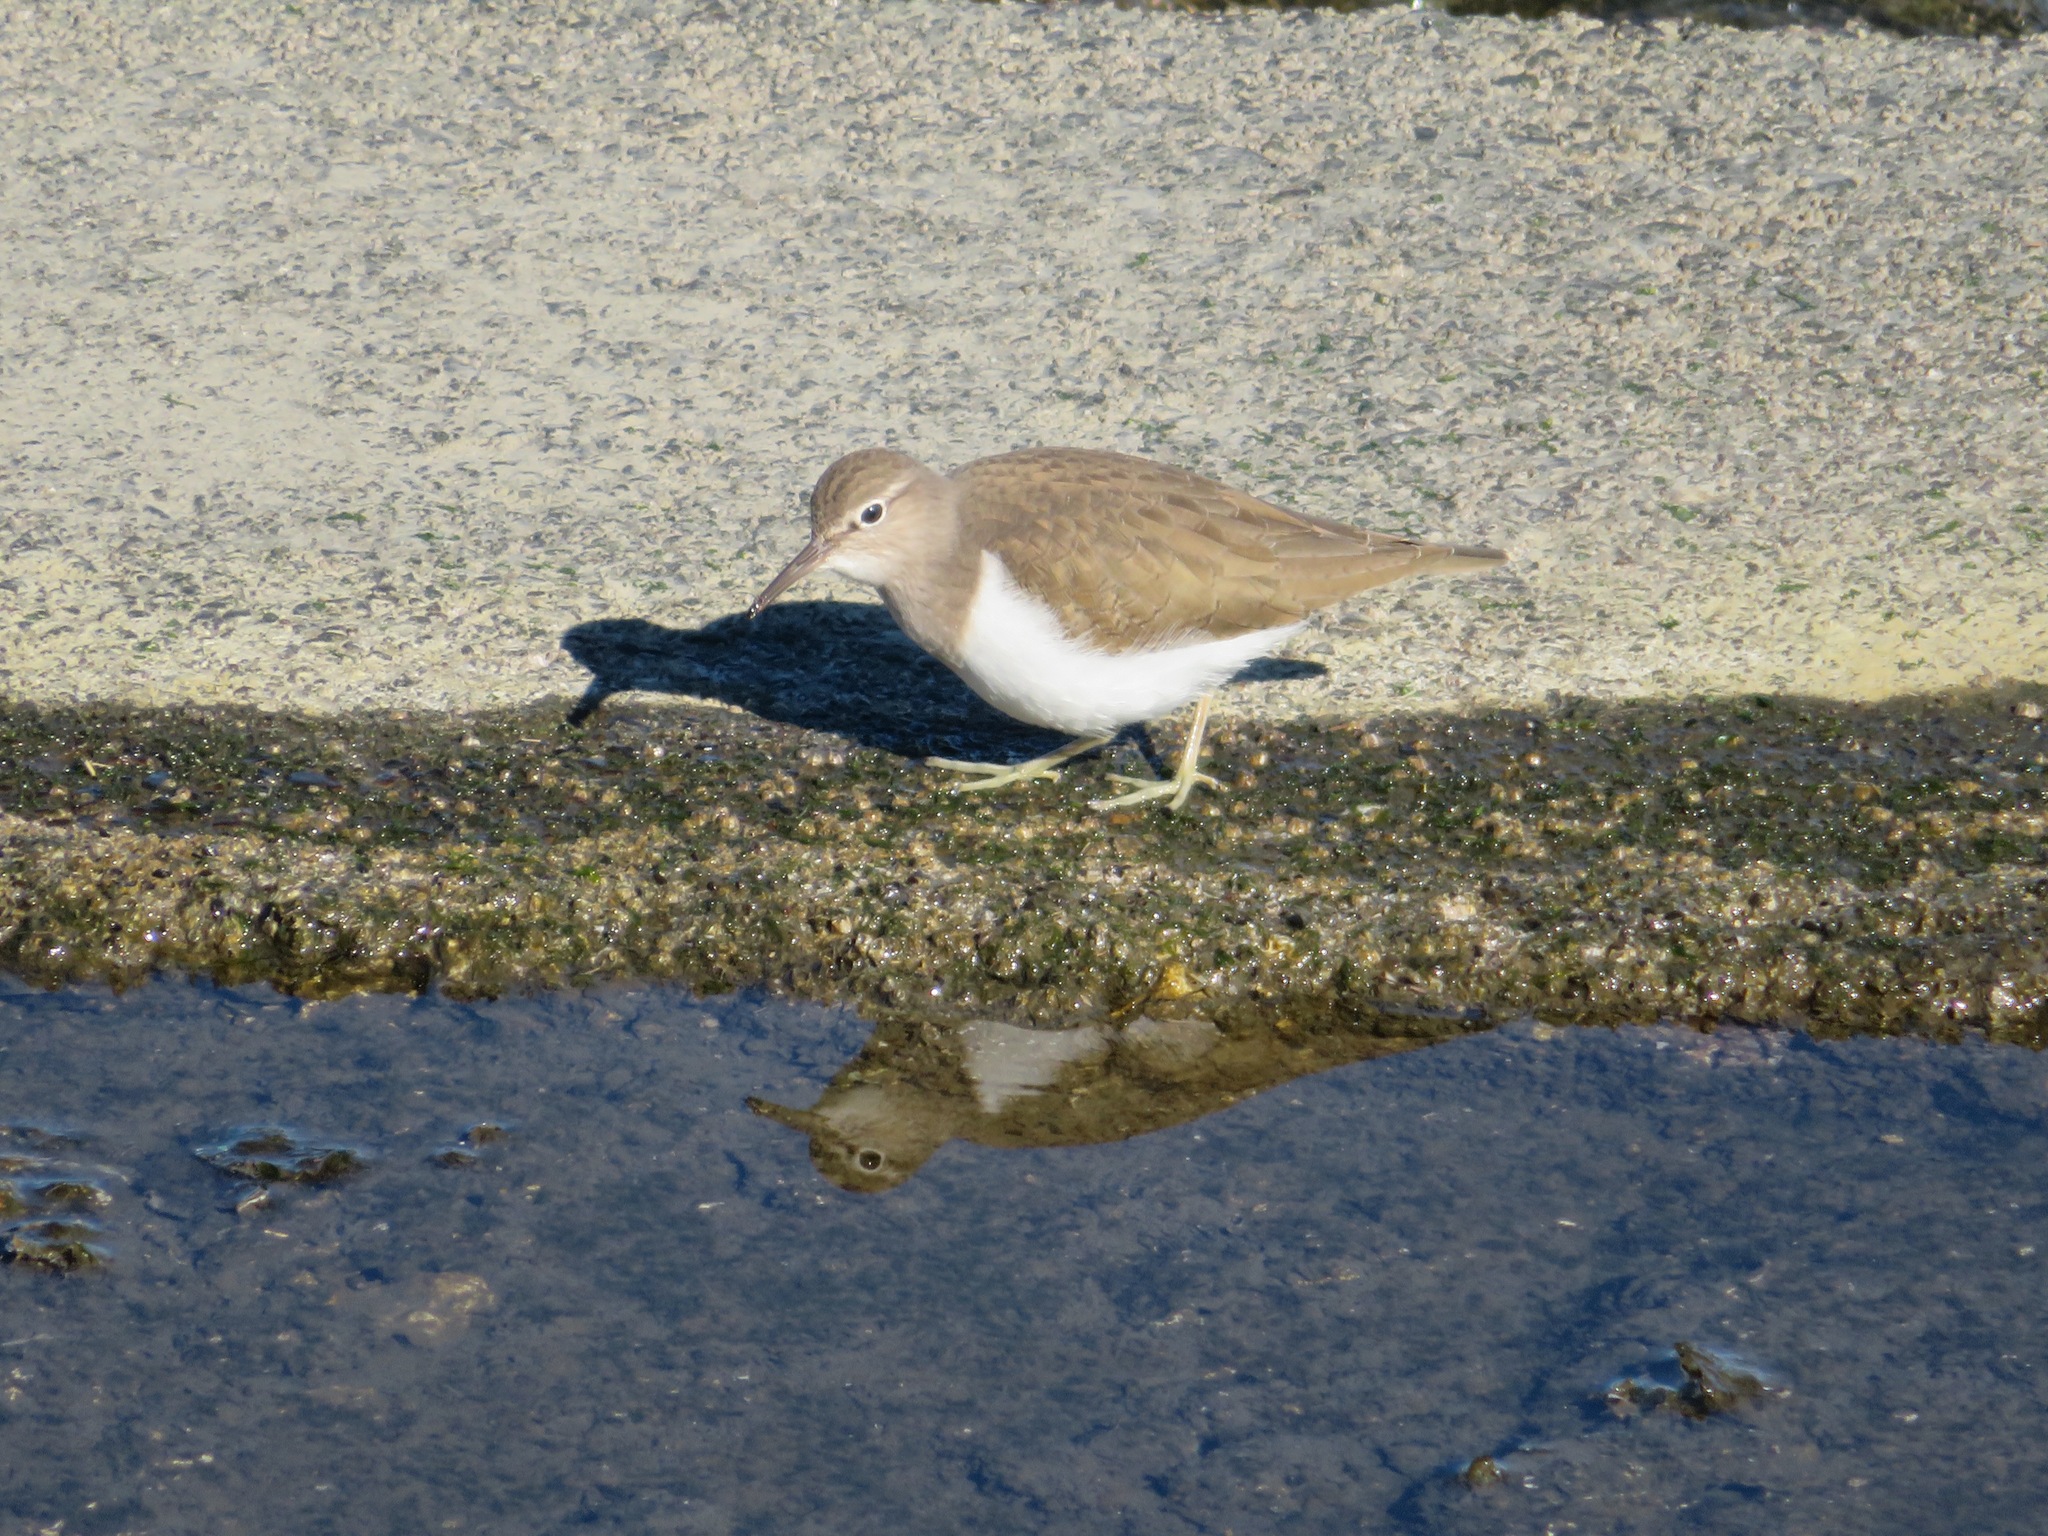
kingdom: Animalia
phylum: Chordata
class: Aves
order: Charadriiformes
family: Scolopacidae
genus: Actitis
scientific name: Actitis hypoleucos
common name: Common sandpiper
